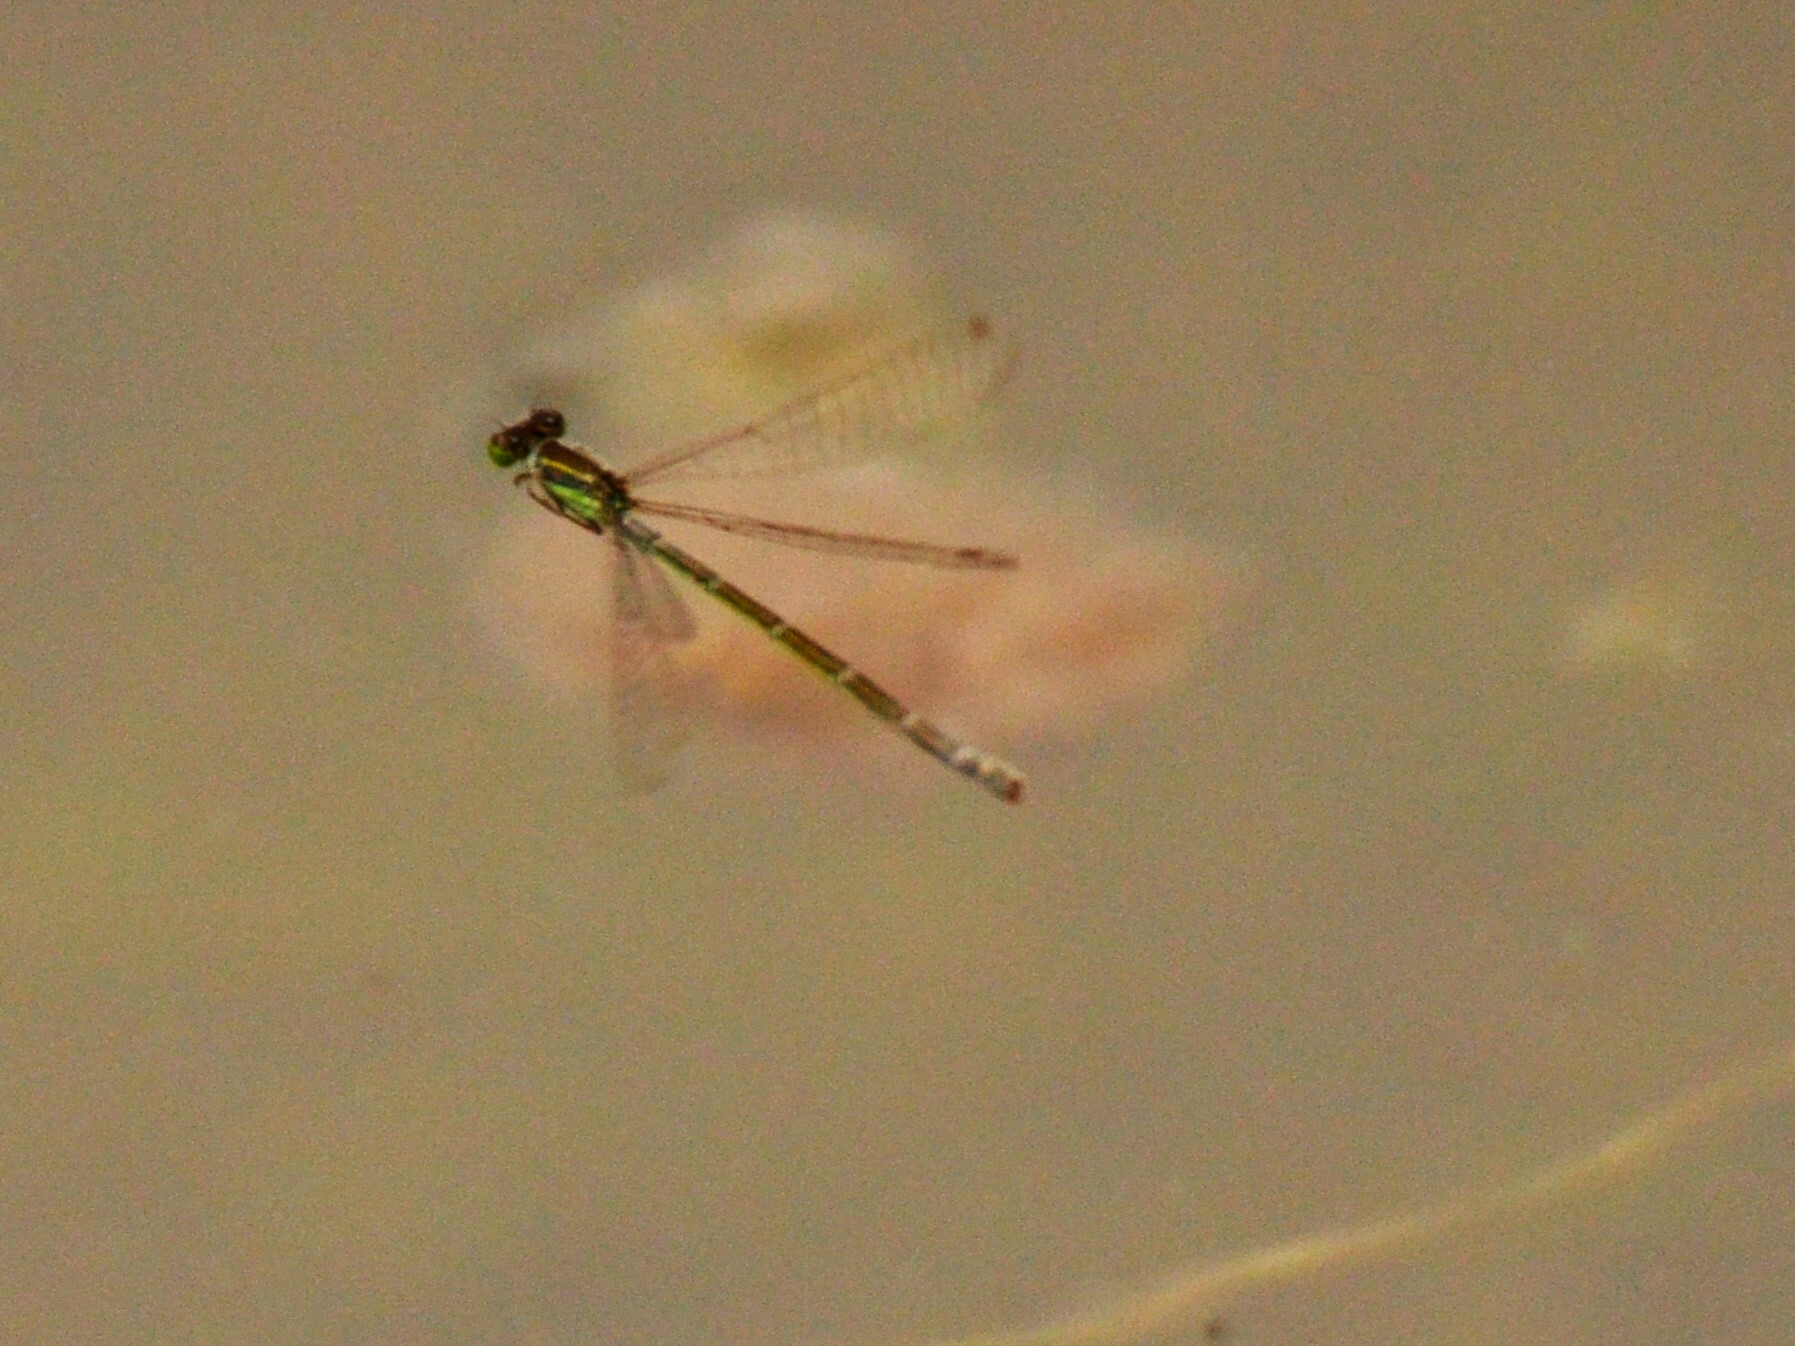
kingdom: Animalia
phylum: Arthropoda
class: Insecta
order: Odonata
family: Coenagrionidae
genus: Ischnura
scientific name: Ischnura aurora
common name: Gossamer damselfly
